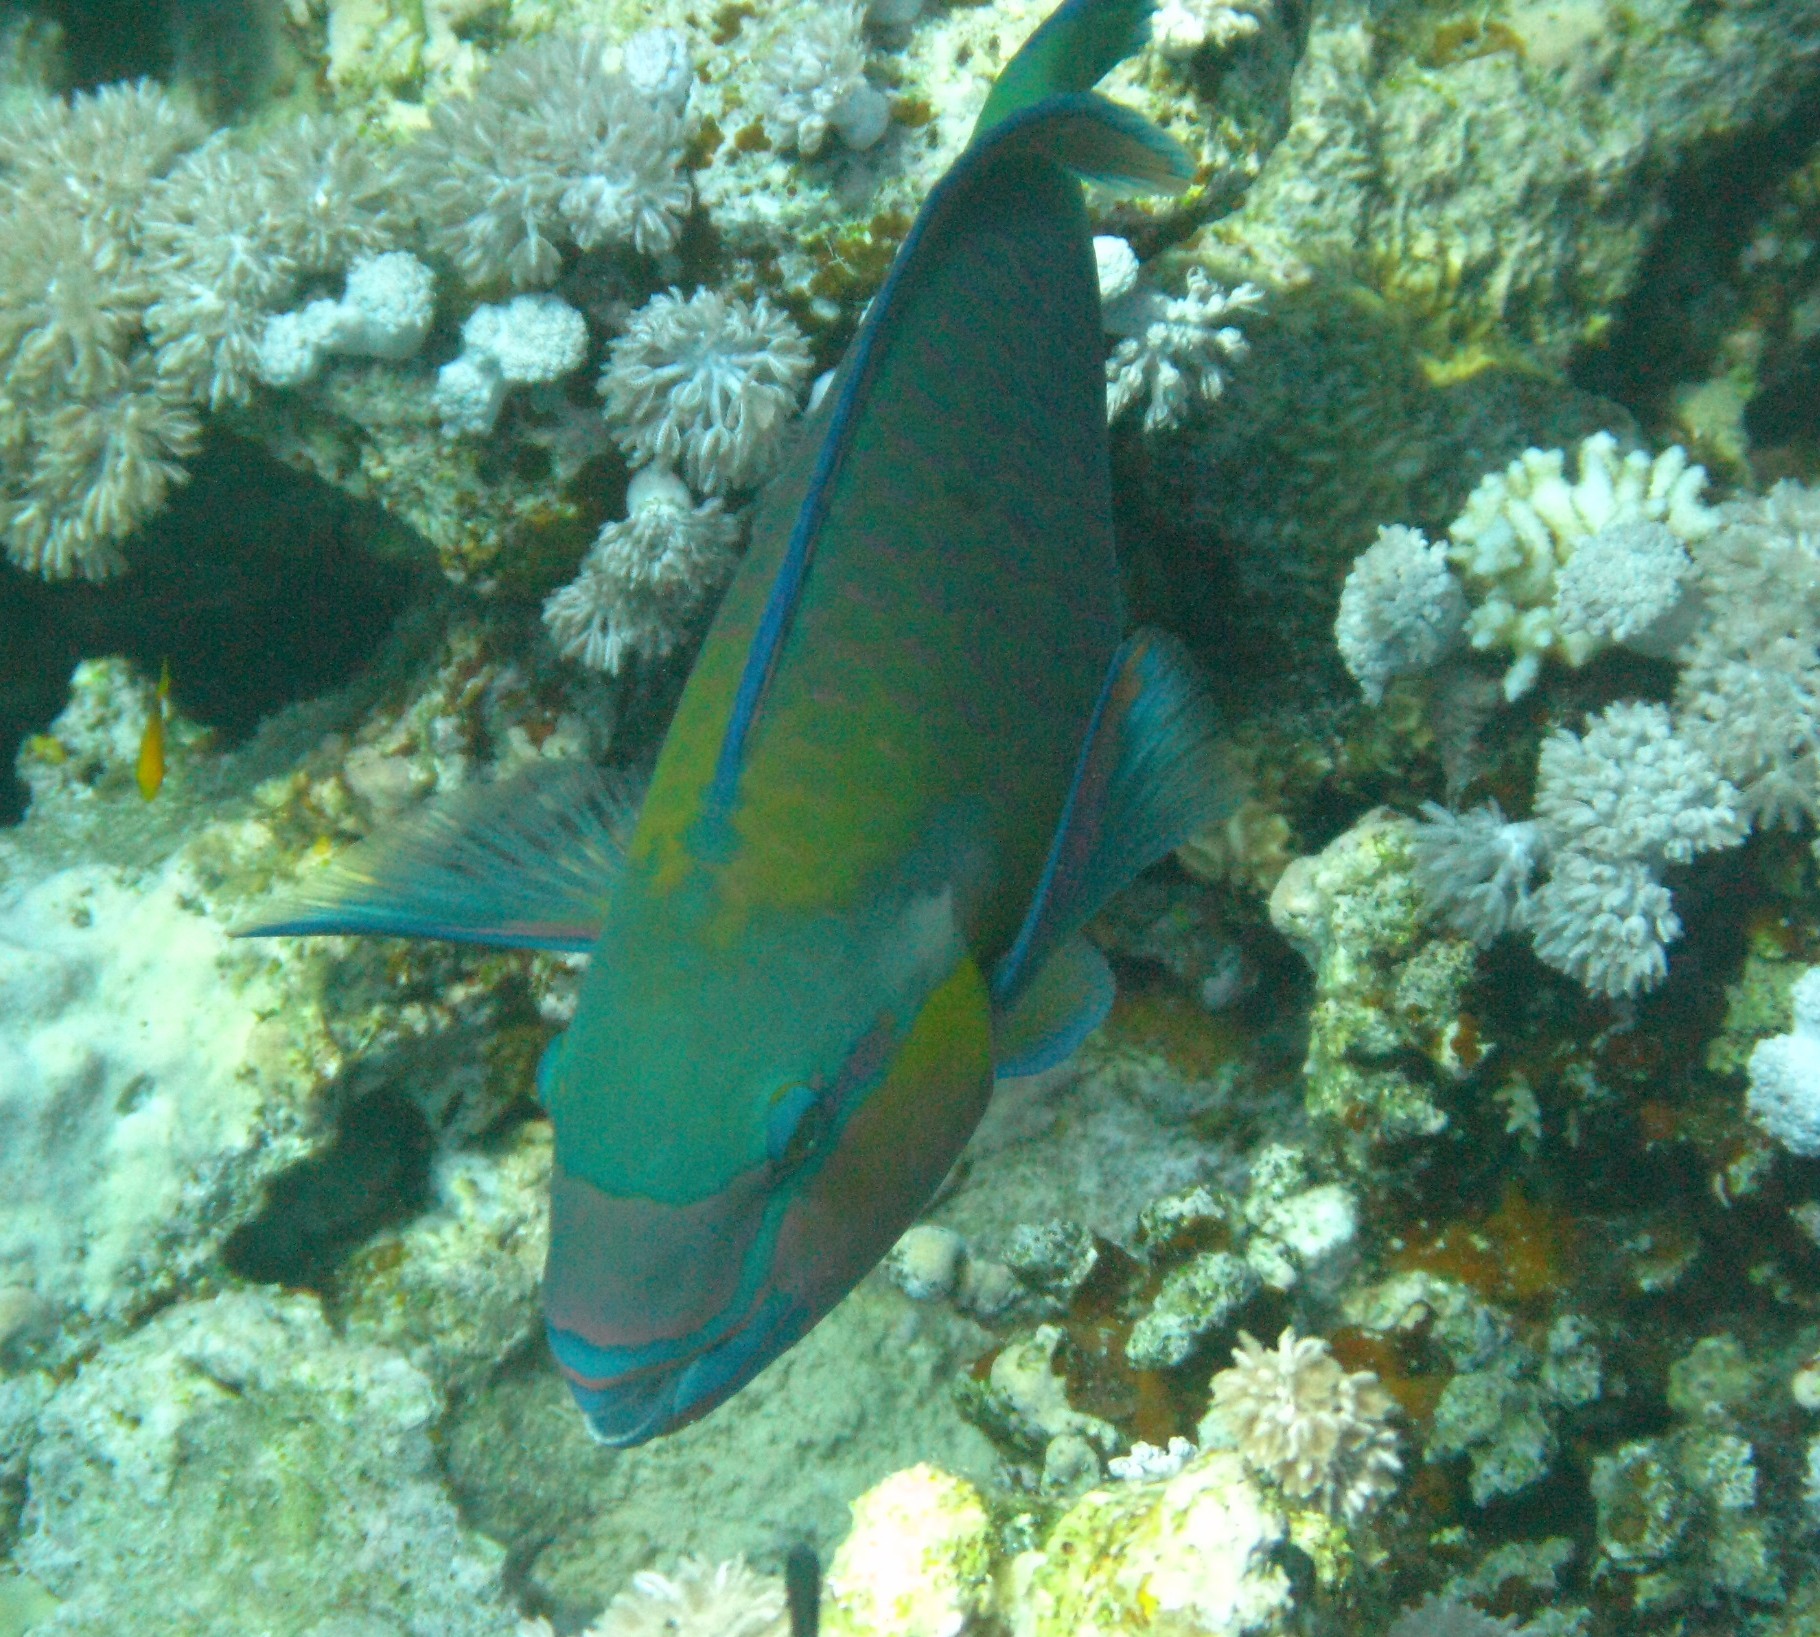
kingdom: Animalia
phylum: Chordata
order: Perciformes
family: Scaridae
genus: Chlorurus
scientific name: Chlorurus sordidus
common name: Bullethead parrotfish
